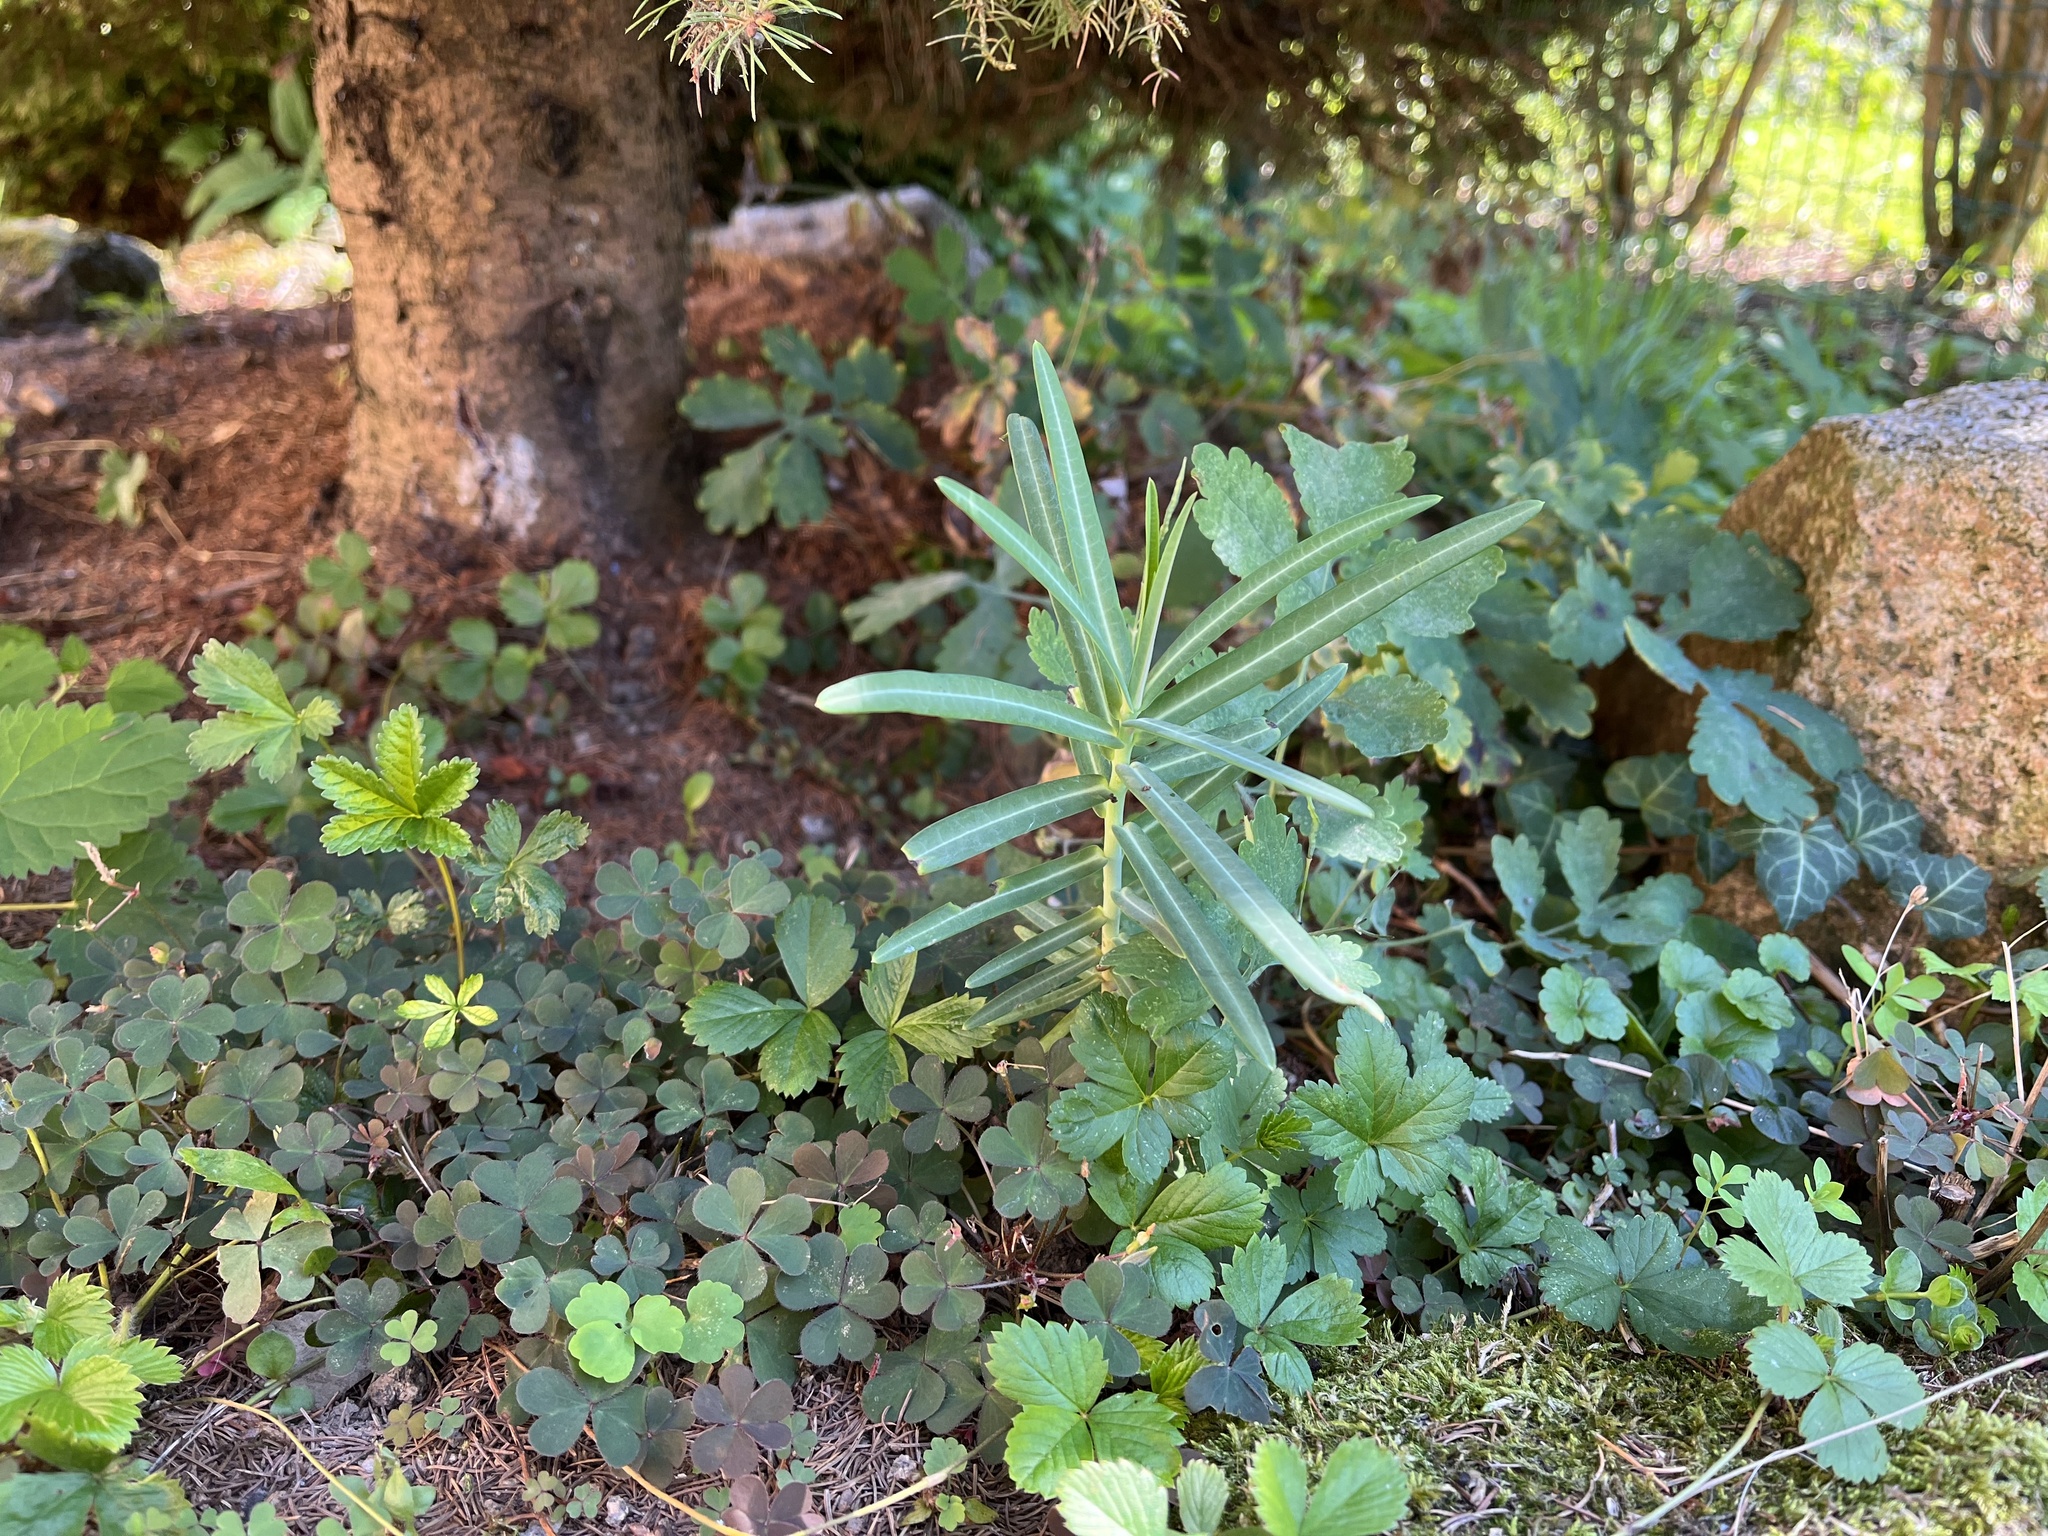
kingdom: Plantae
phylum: Tracheophyta
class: Magnoliopsida
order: Malpighiales
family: Euphorbiaceae
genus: Euphorbia
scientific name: Euphorbia lathyris
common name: Caper spurge
